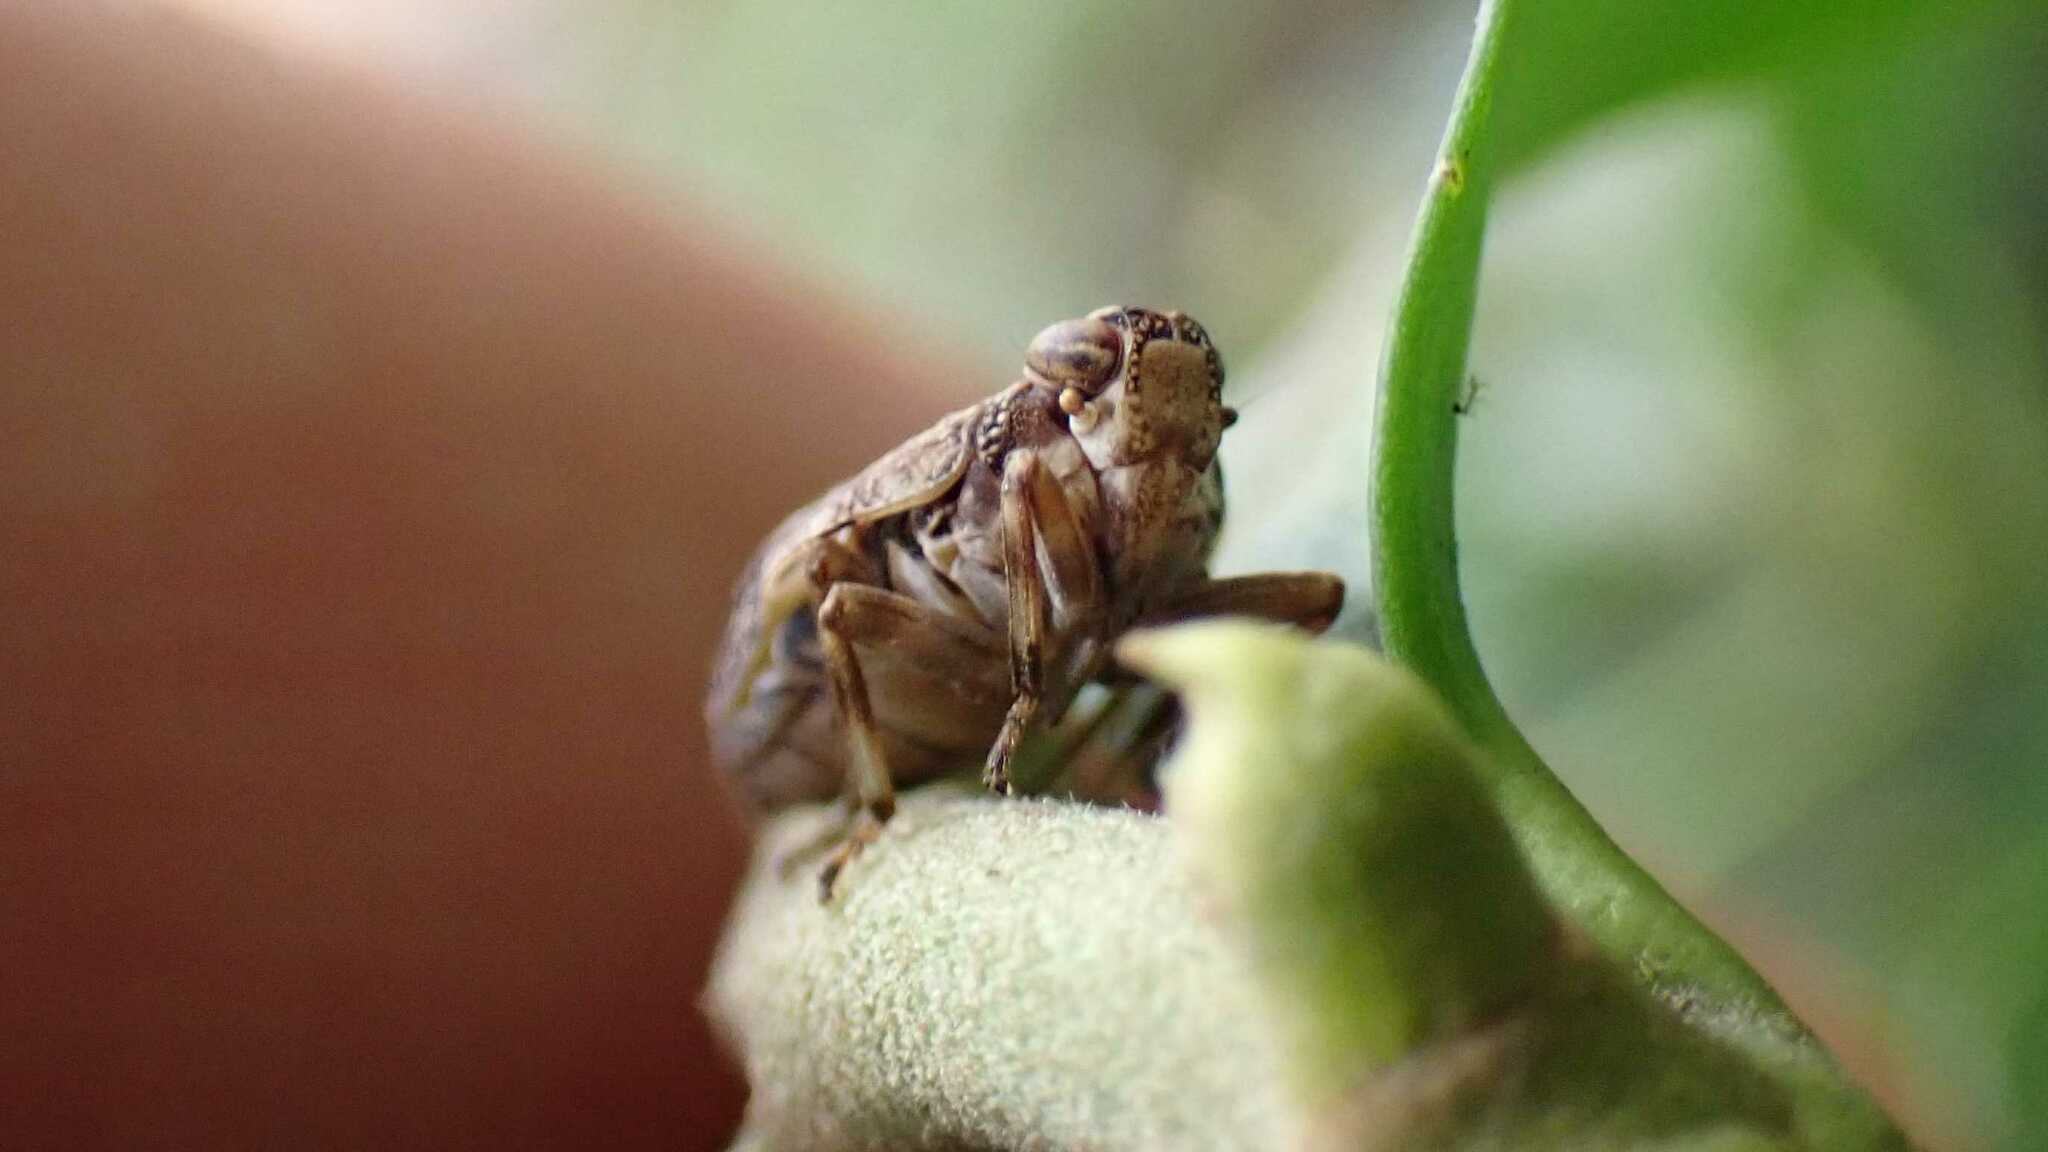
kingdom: Animalia
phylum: Arthropoda
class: Insecta
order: Hemiptera
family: Issidae
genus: Issus
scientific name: Issus coleoptratus
